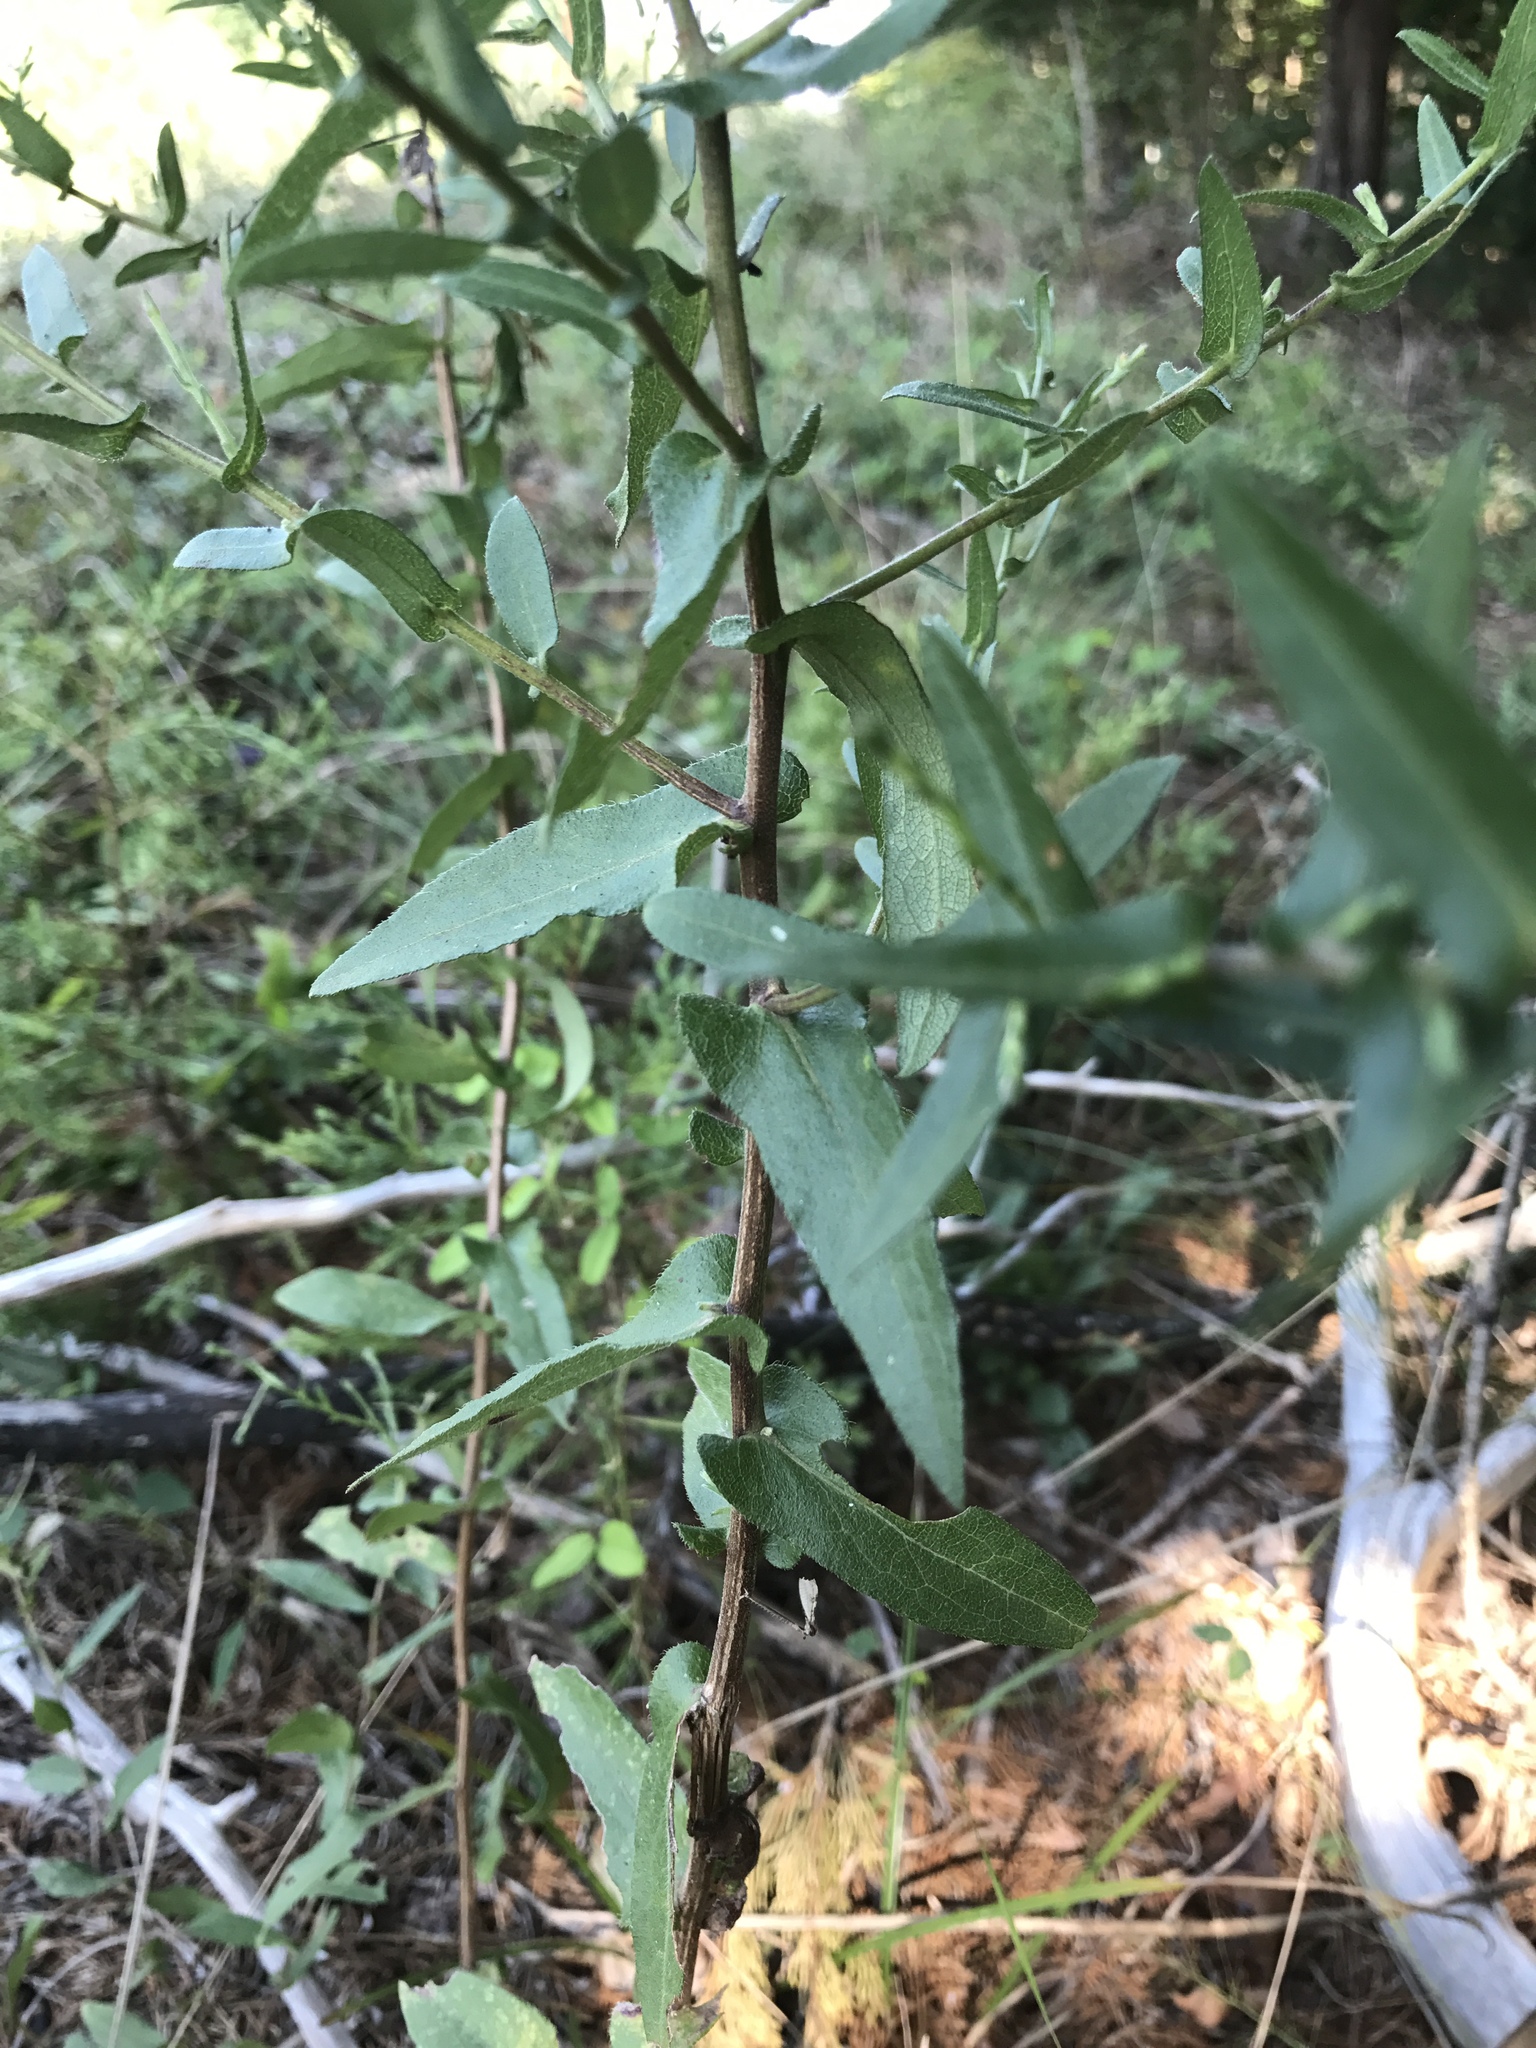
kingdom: Plantae
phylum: Tracheophyta
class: Magnoliopsida
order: Asterales
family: Asteraceae
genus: Symphyotrichum
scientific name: Symphyotrichum patens
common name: Late purple aster
